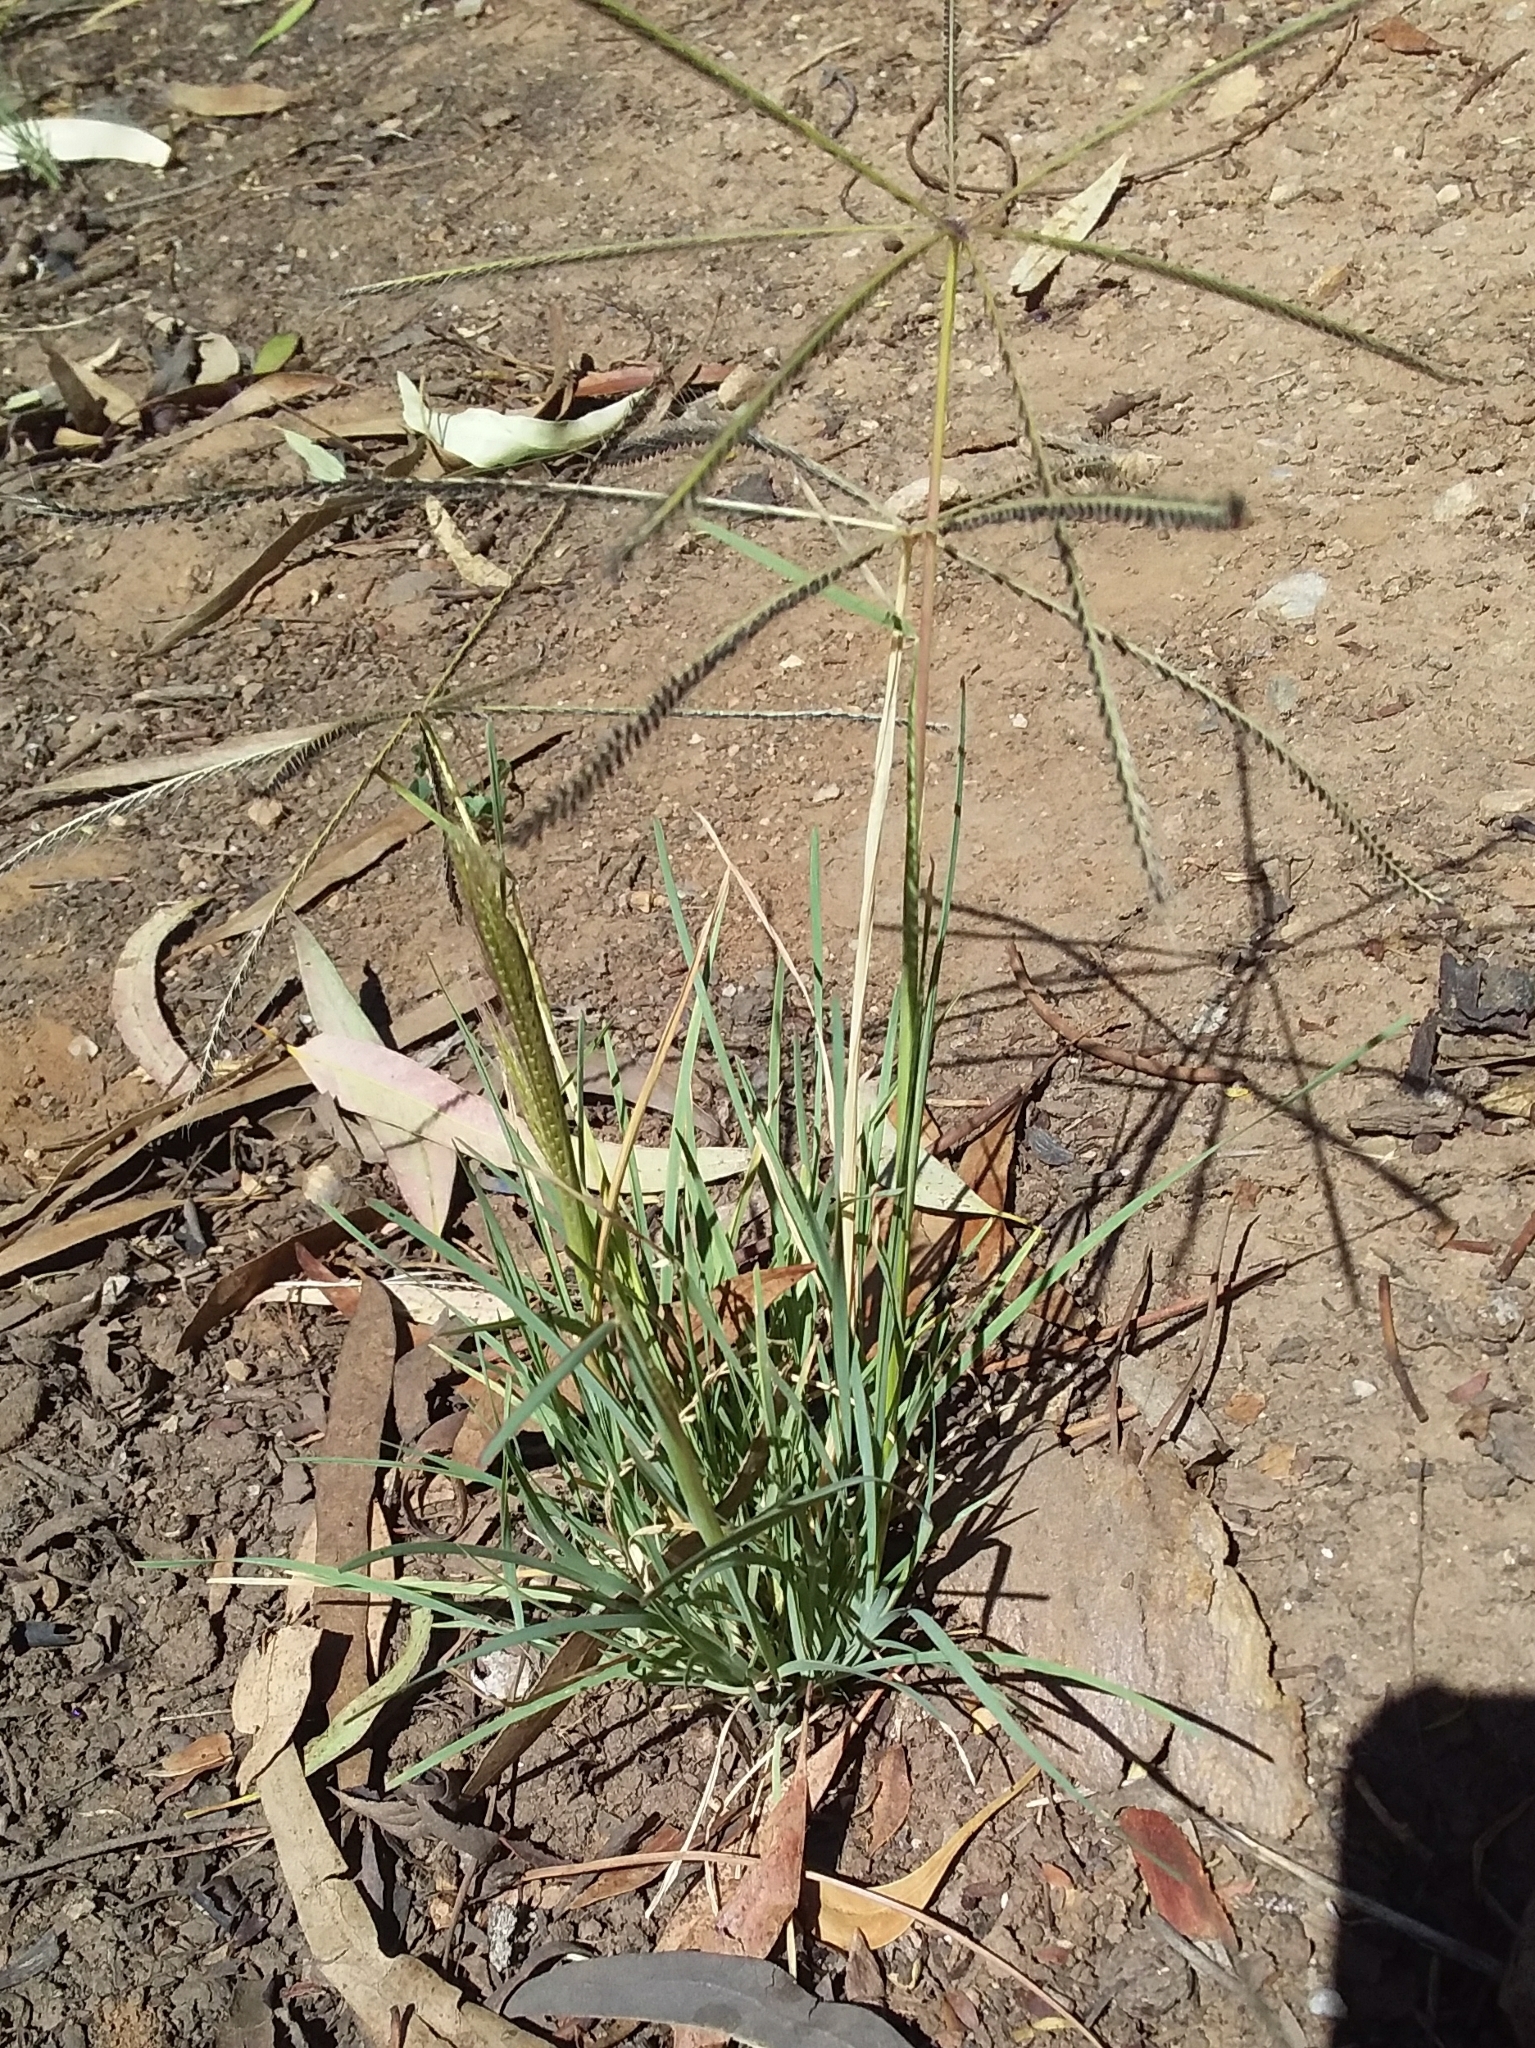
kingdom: Plantae
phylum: Tracheophyta
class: Liliopsida
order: Poales
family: Poaceae
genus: Chloris
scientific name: Chloris truncata
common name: Windmill-grass
